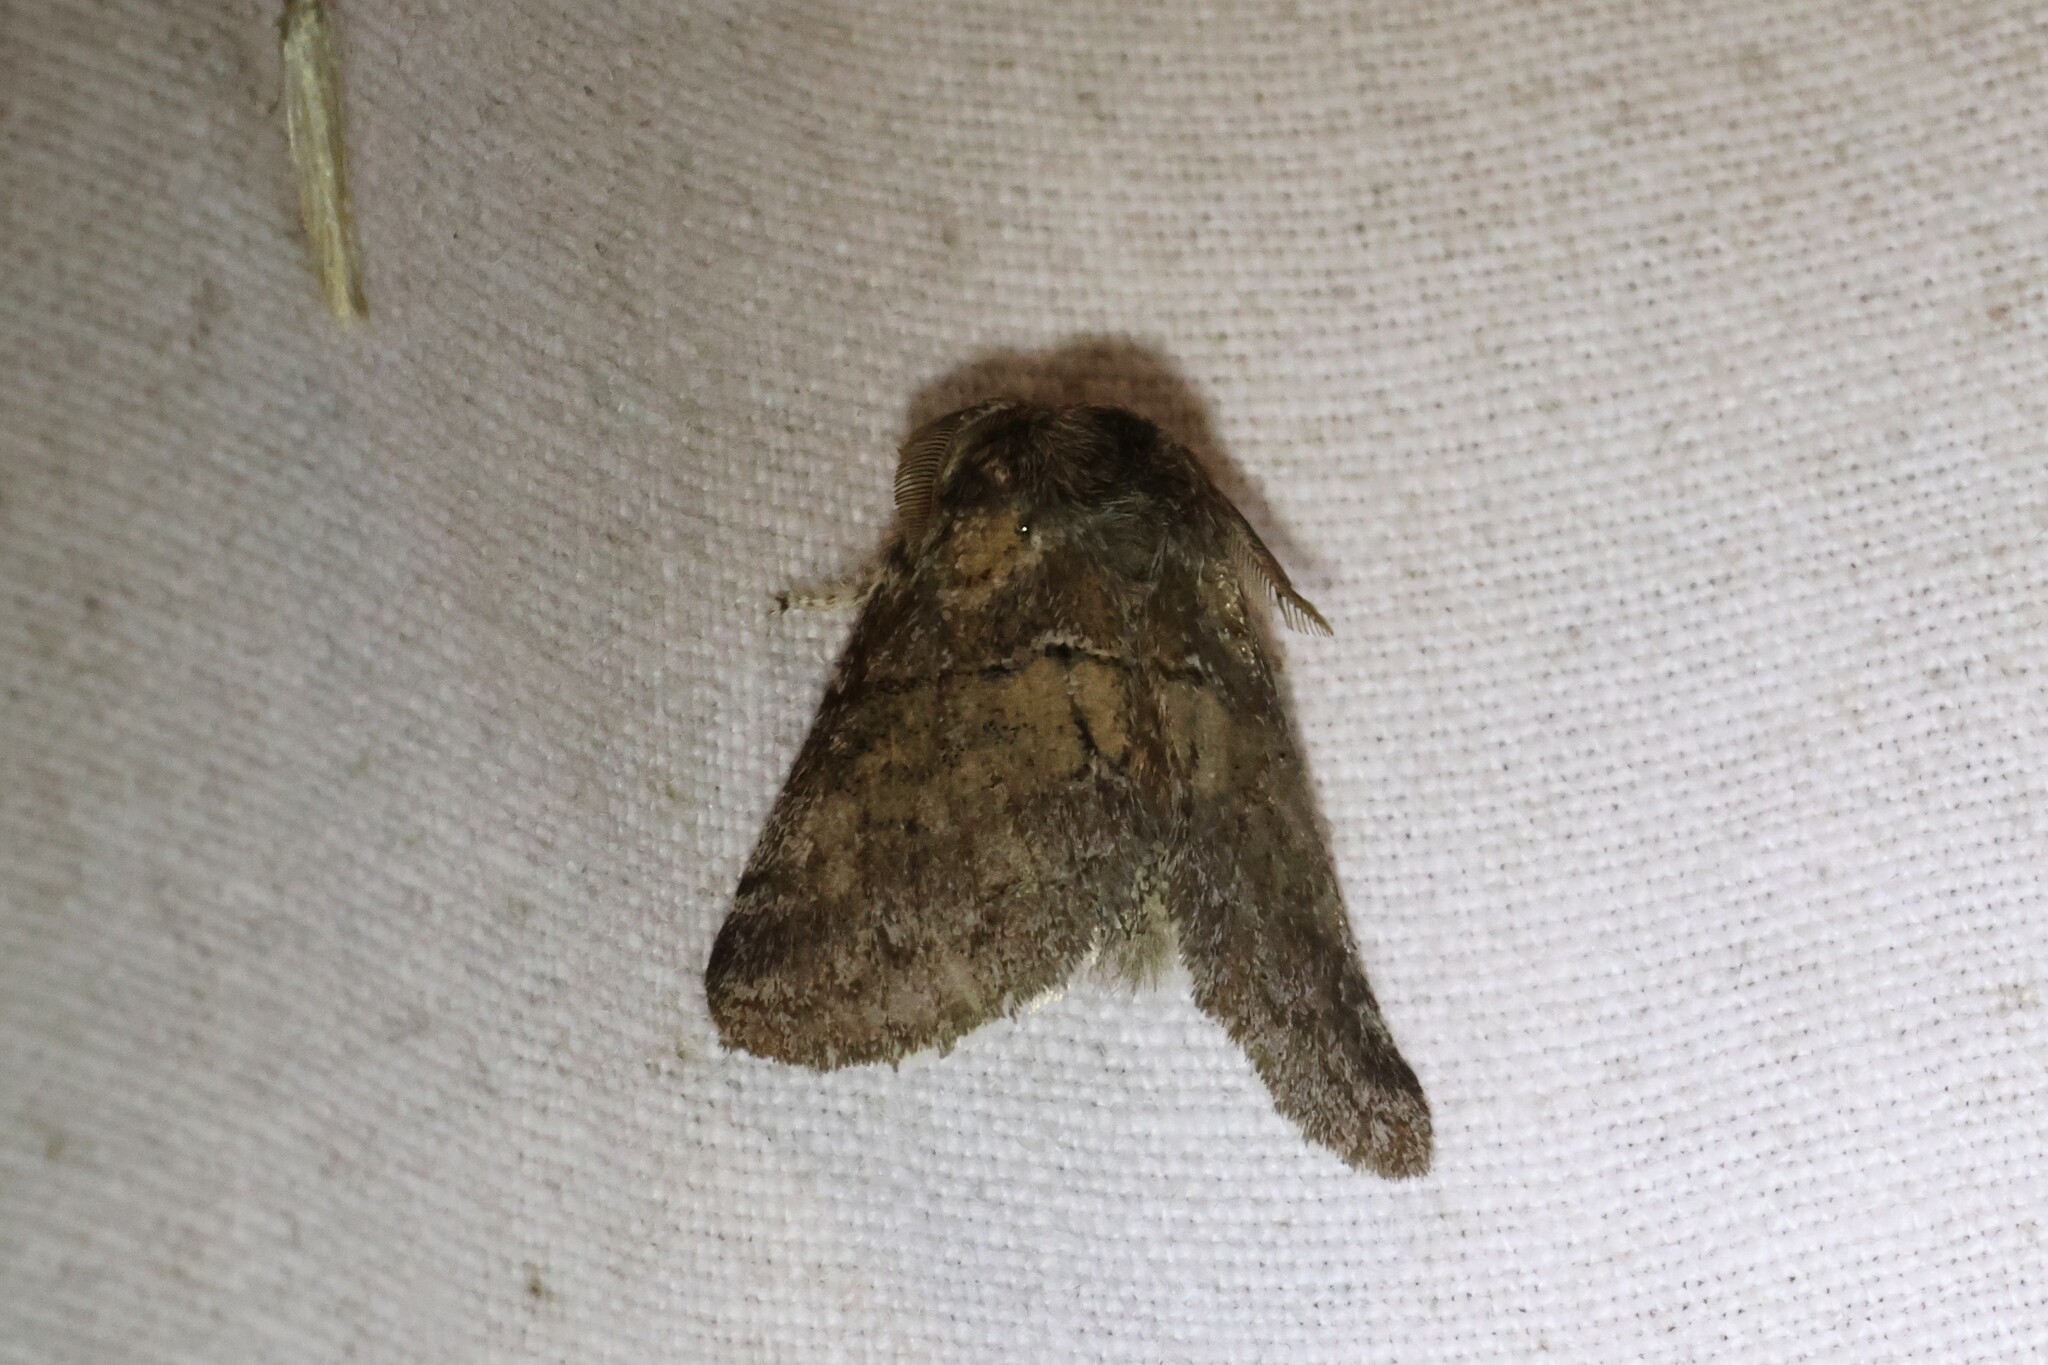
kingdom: Animalia
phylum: Arthropoda
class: Insecta
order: Lepidoptera
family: Notodontidae
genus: Gluphisia
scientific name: Gluphisia septentrionis
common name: Common gluphisia
